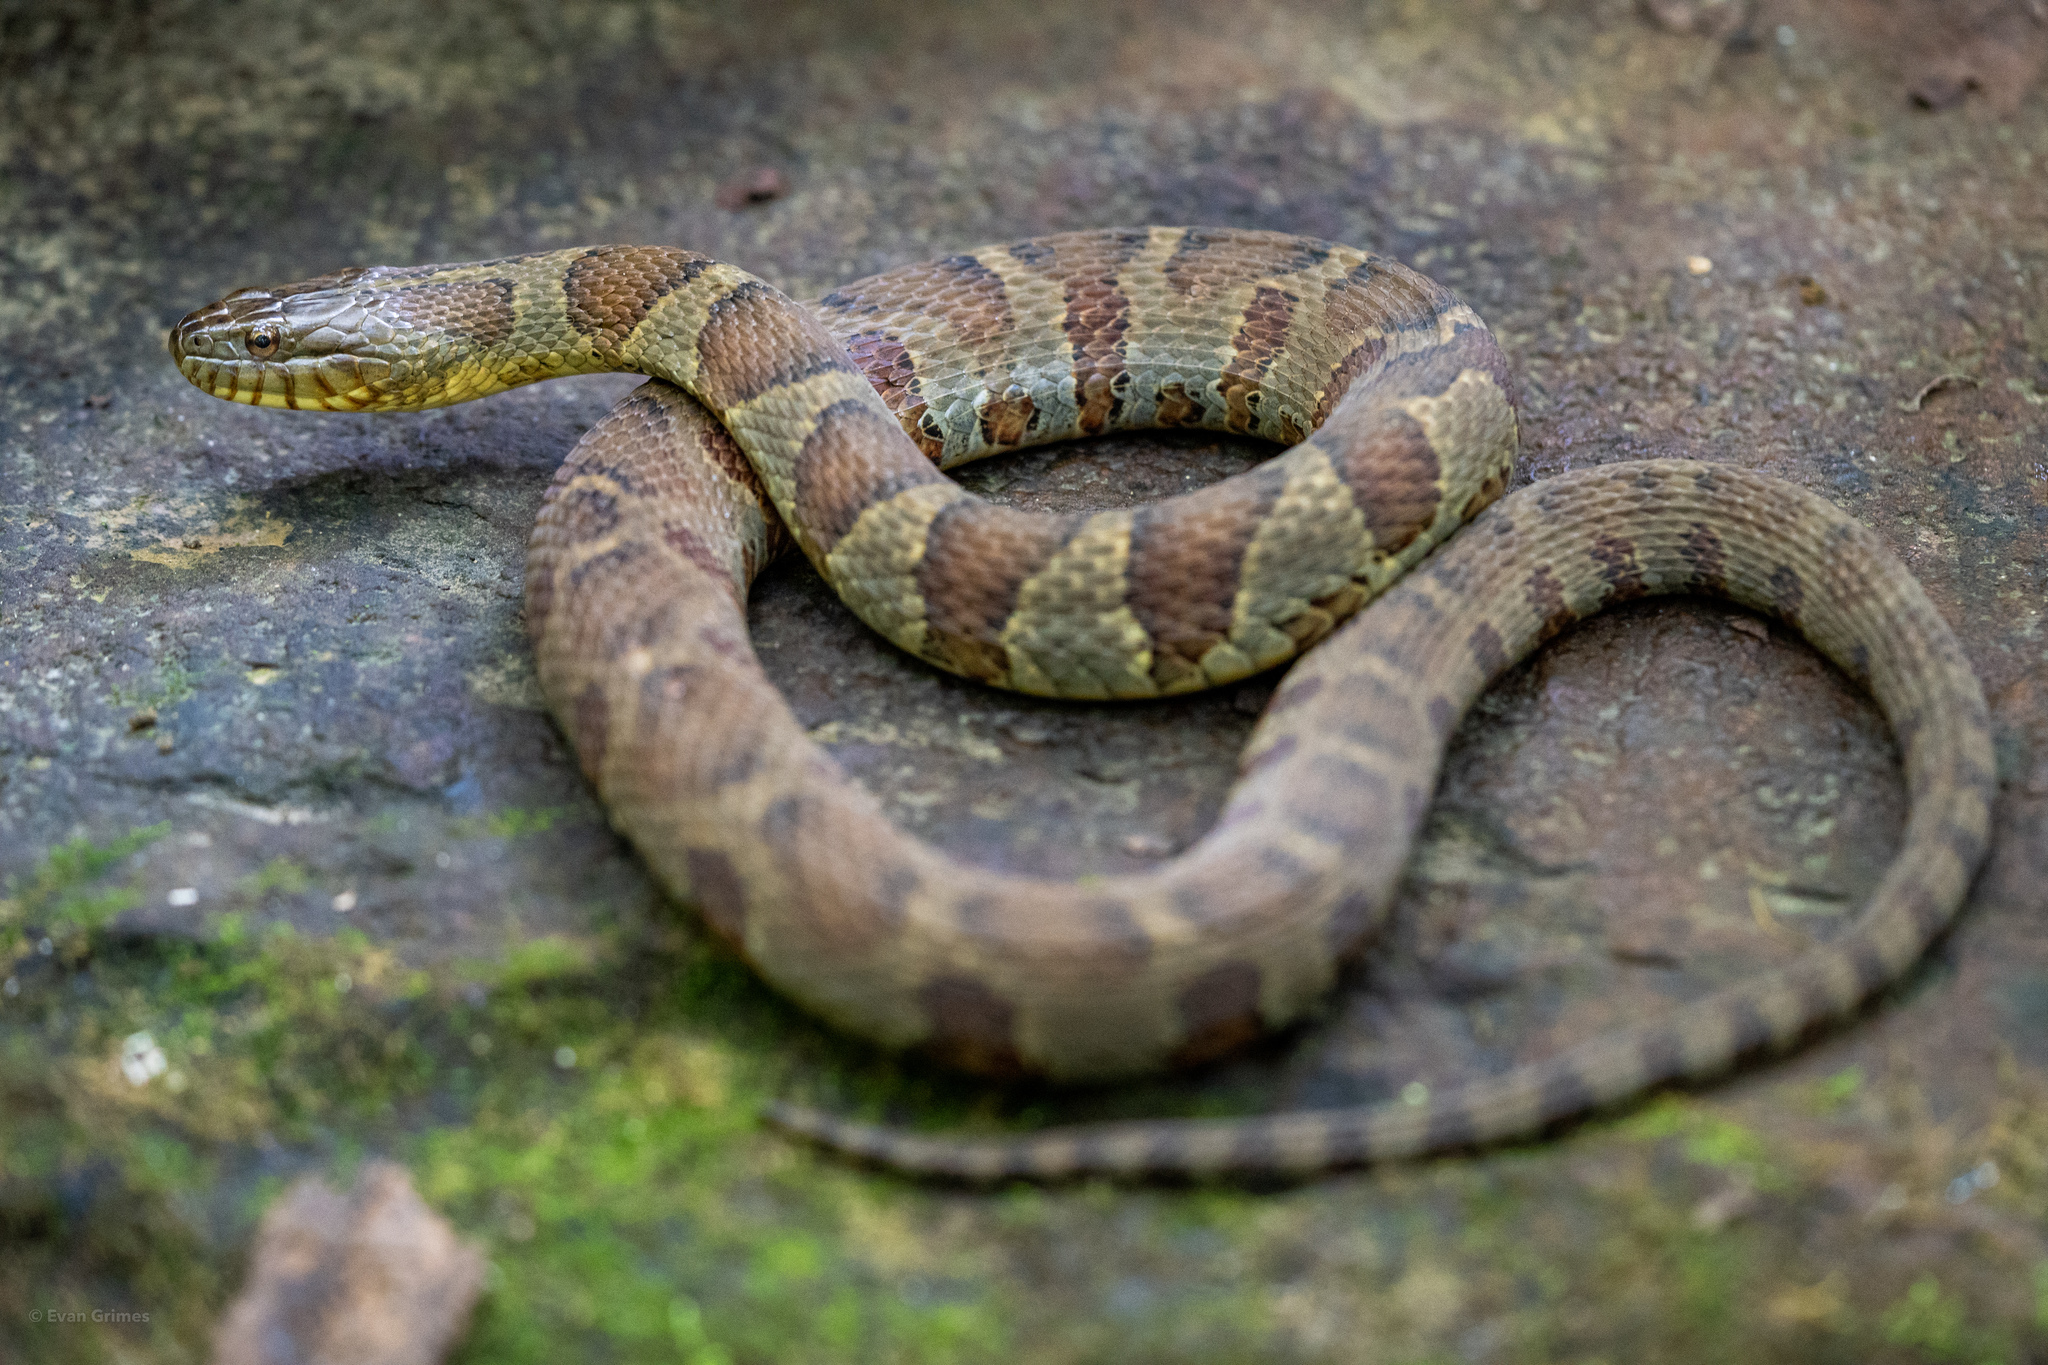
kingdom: Animalia
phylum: Chordata
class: Squamata
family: Colubridae
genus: Nerodia
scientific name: Nerodia sipedon
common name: Northern water snake
